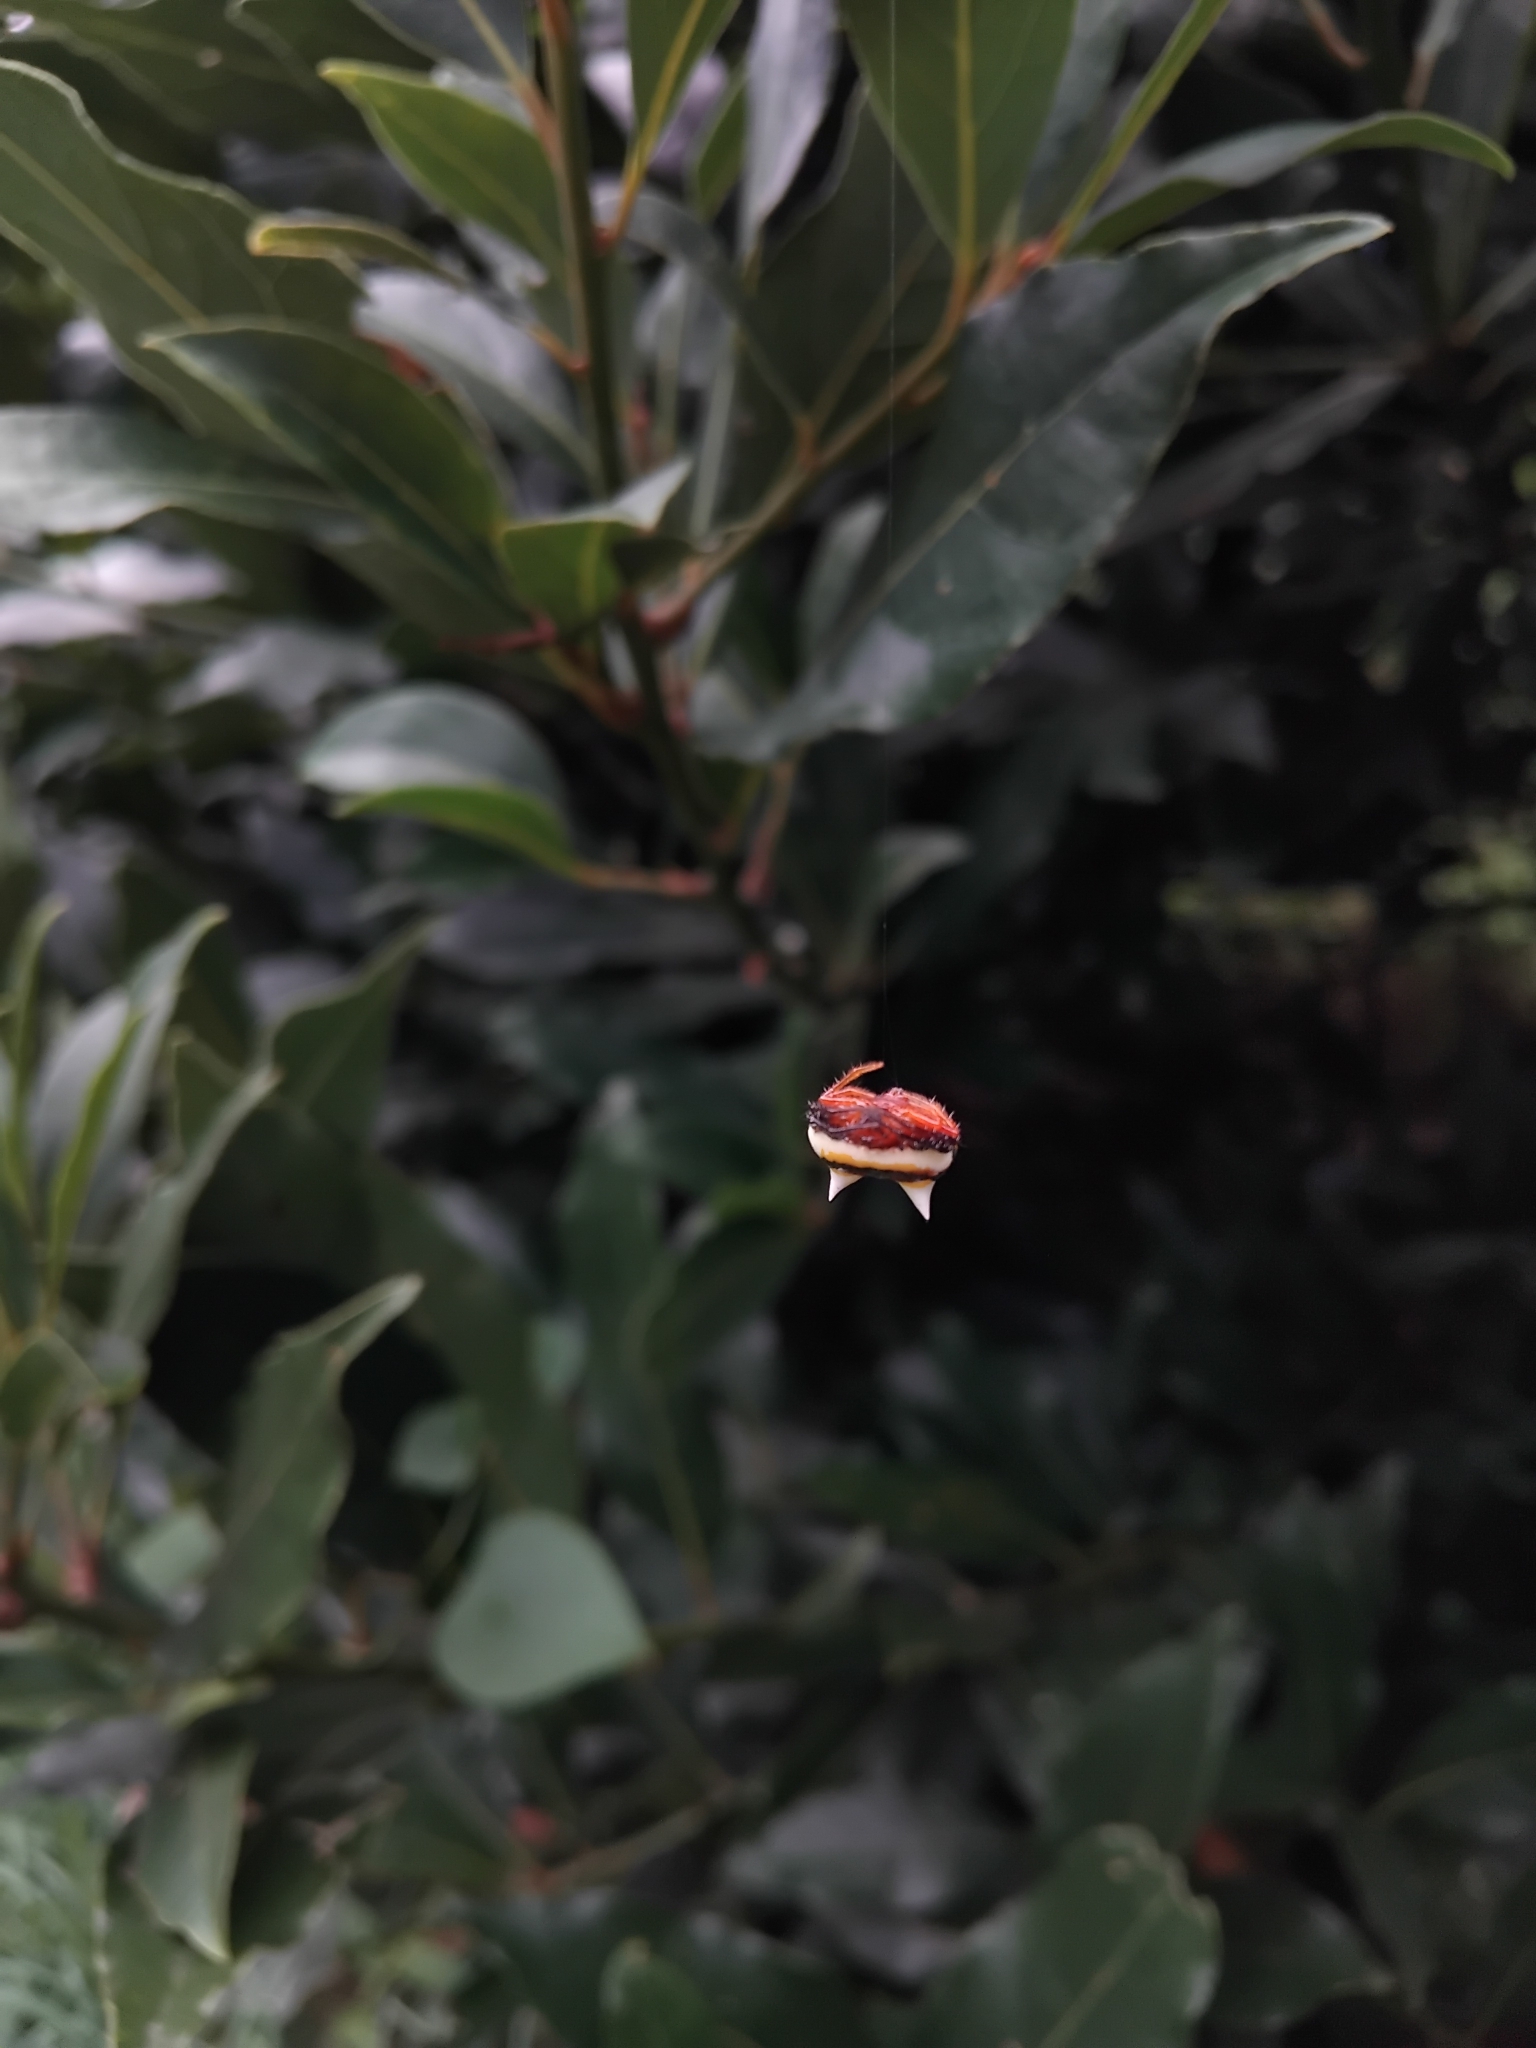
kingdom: Animalia
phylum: Arthropoda
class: Arachnida
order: Araneae
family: Araneidae
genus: Poecilopachys
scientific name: Poecilopachys australasia
